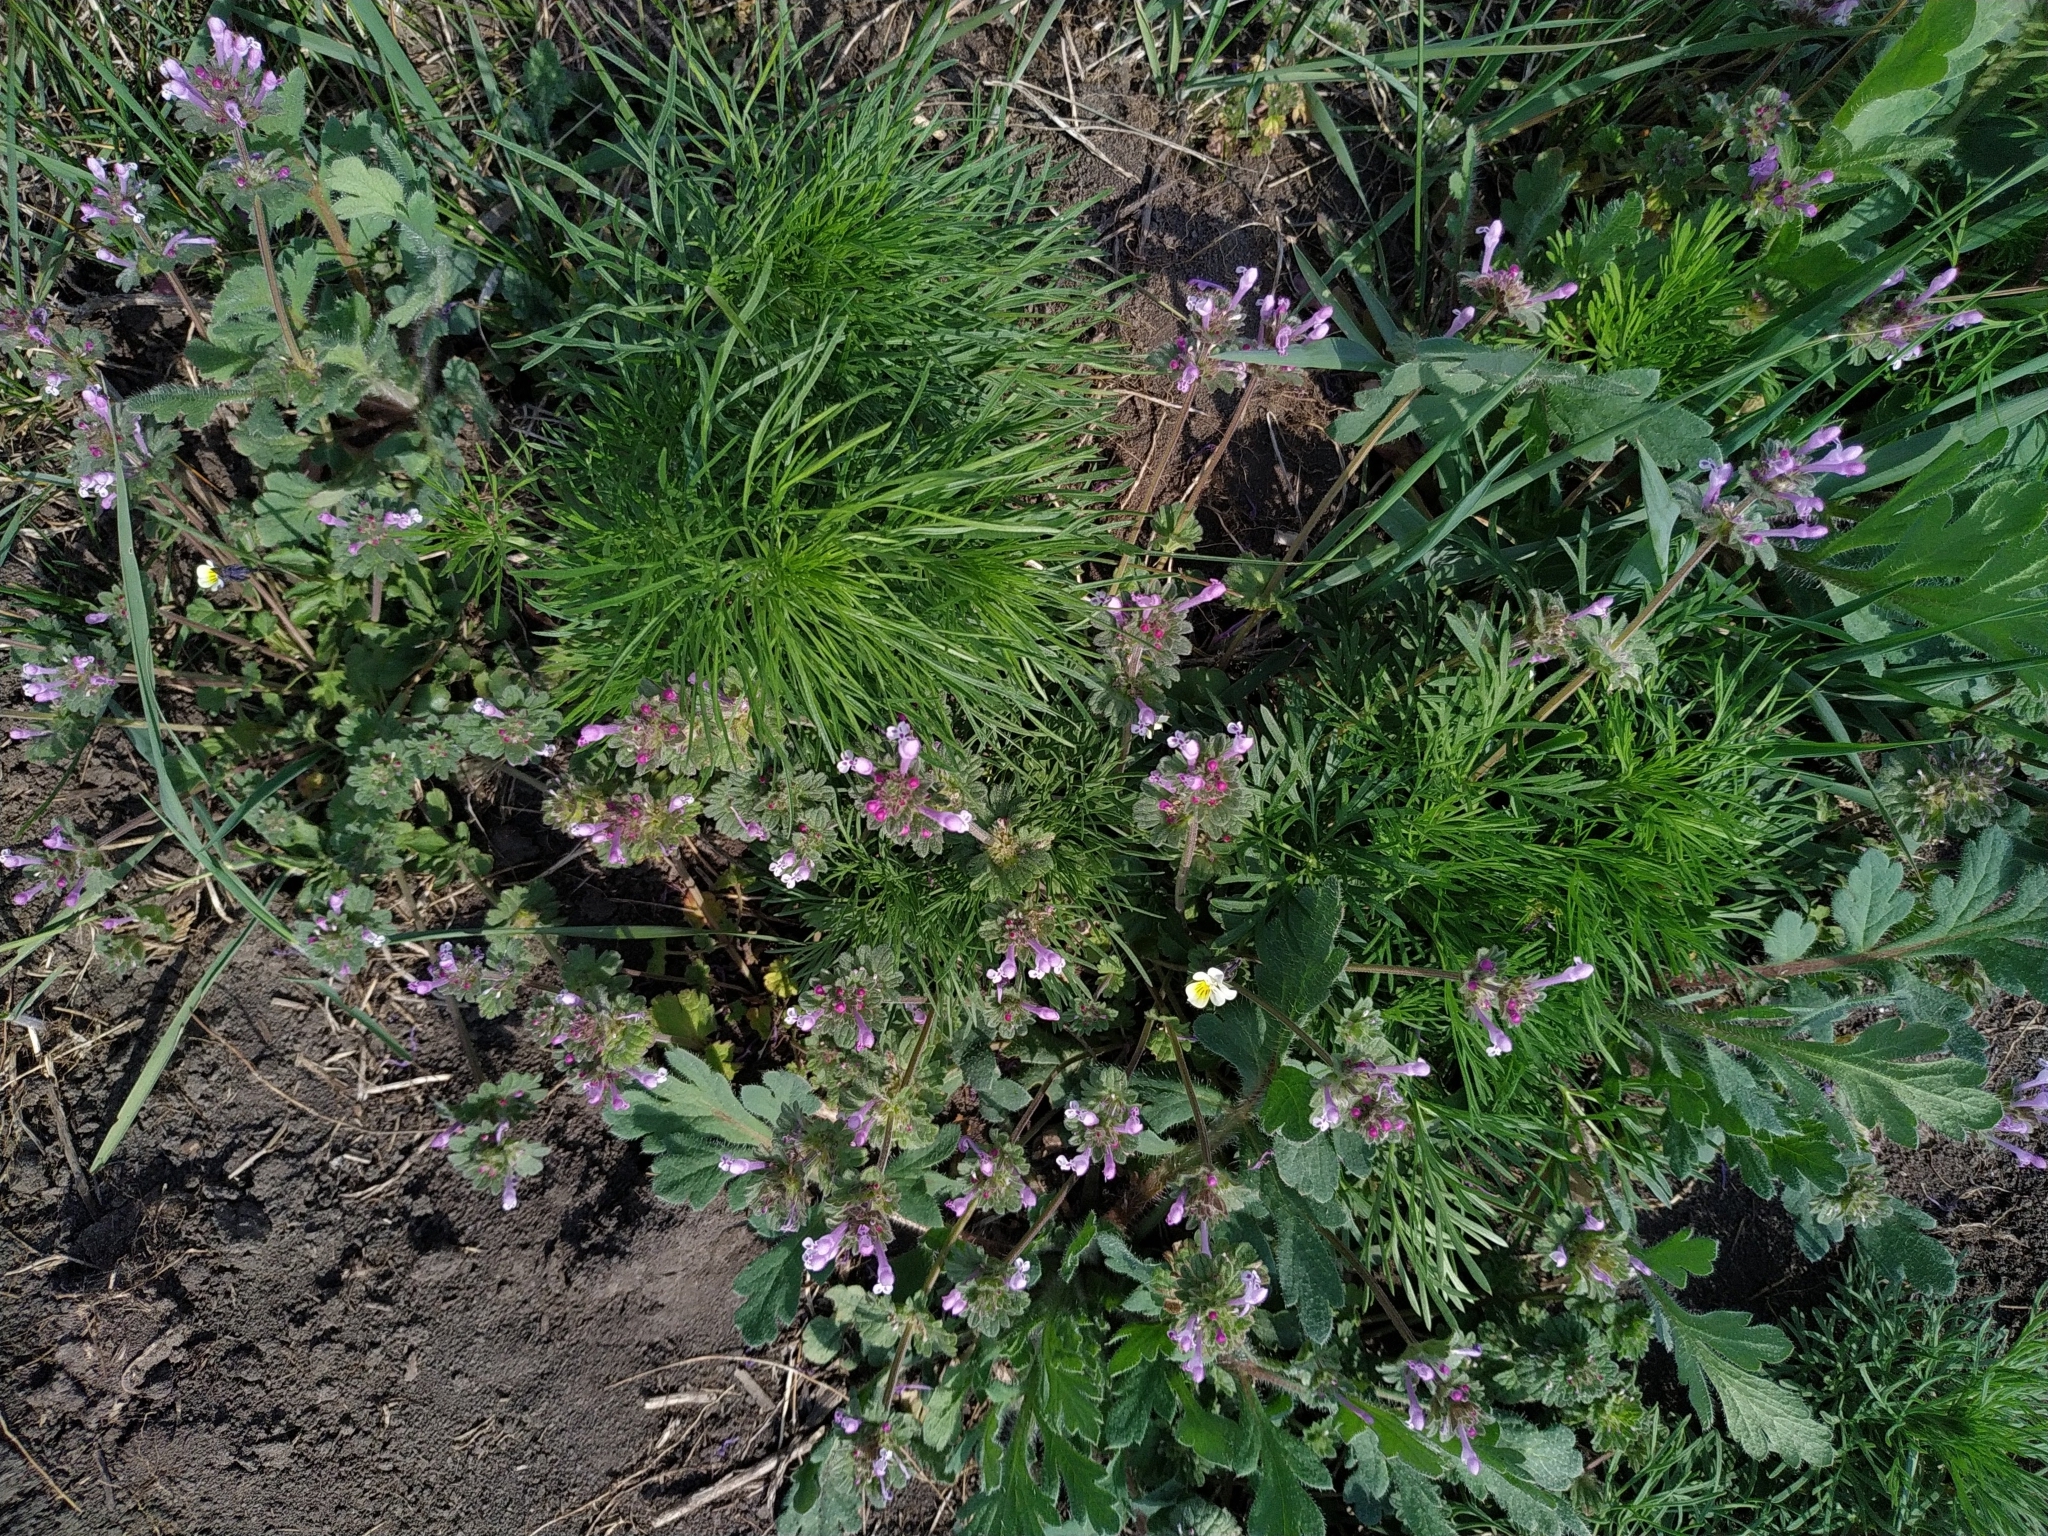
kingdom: Plantae
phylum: Tracheophyta
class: Magnoliopsida
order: Lamiales
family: Lamiaceae
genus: Lamium
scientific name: Lamium amplexicaule
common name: Henbit dead-nettle
